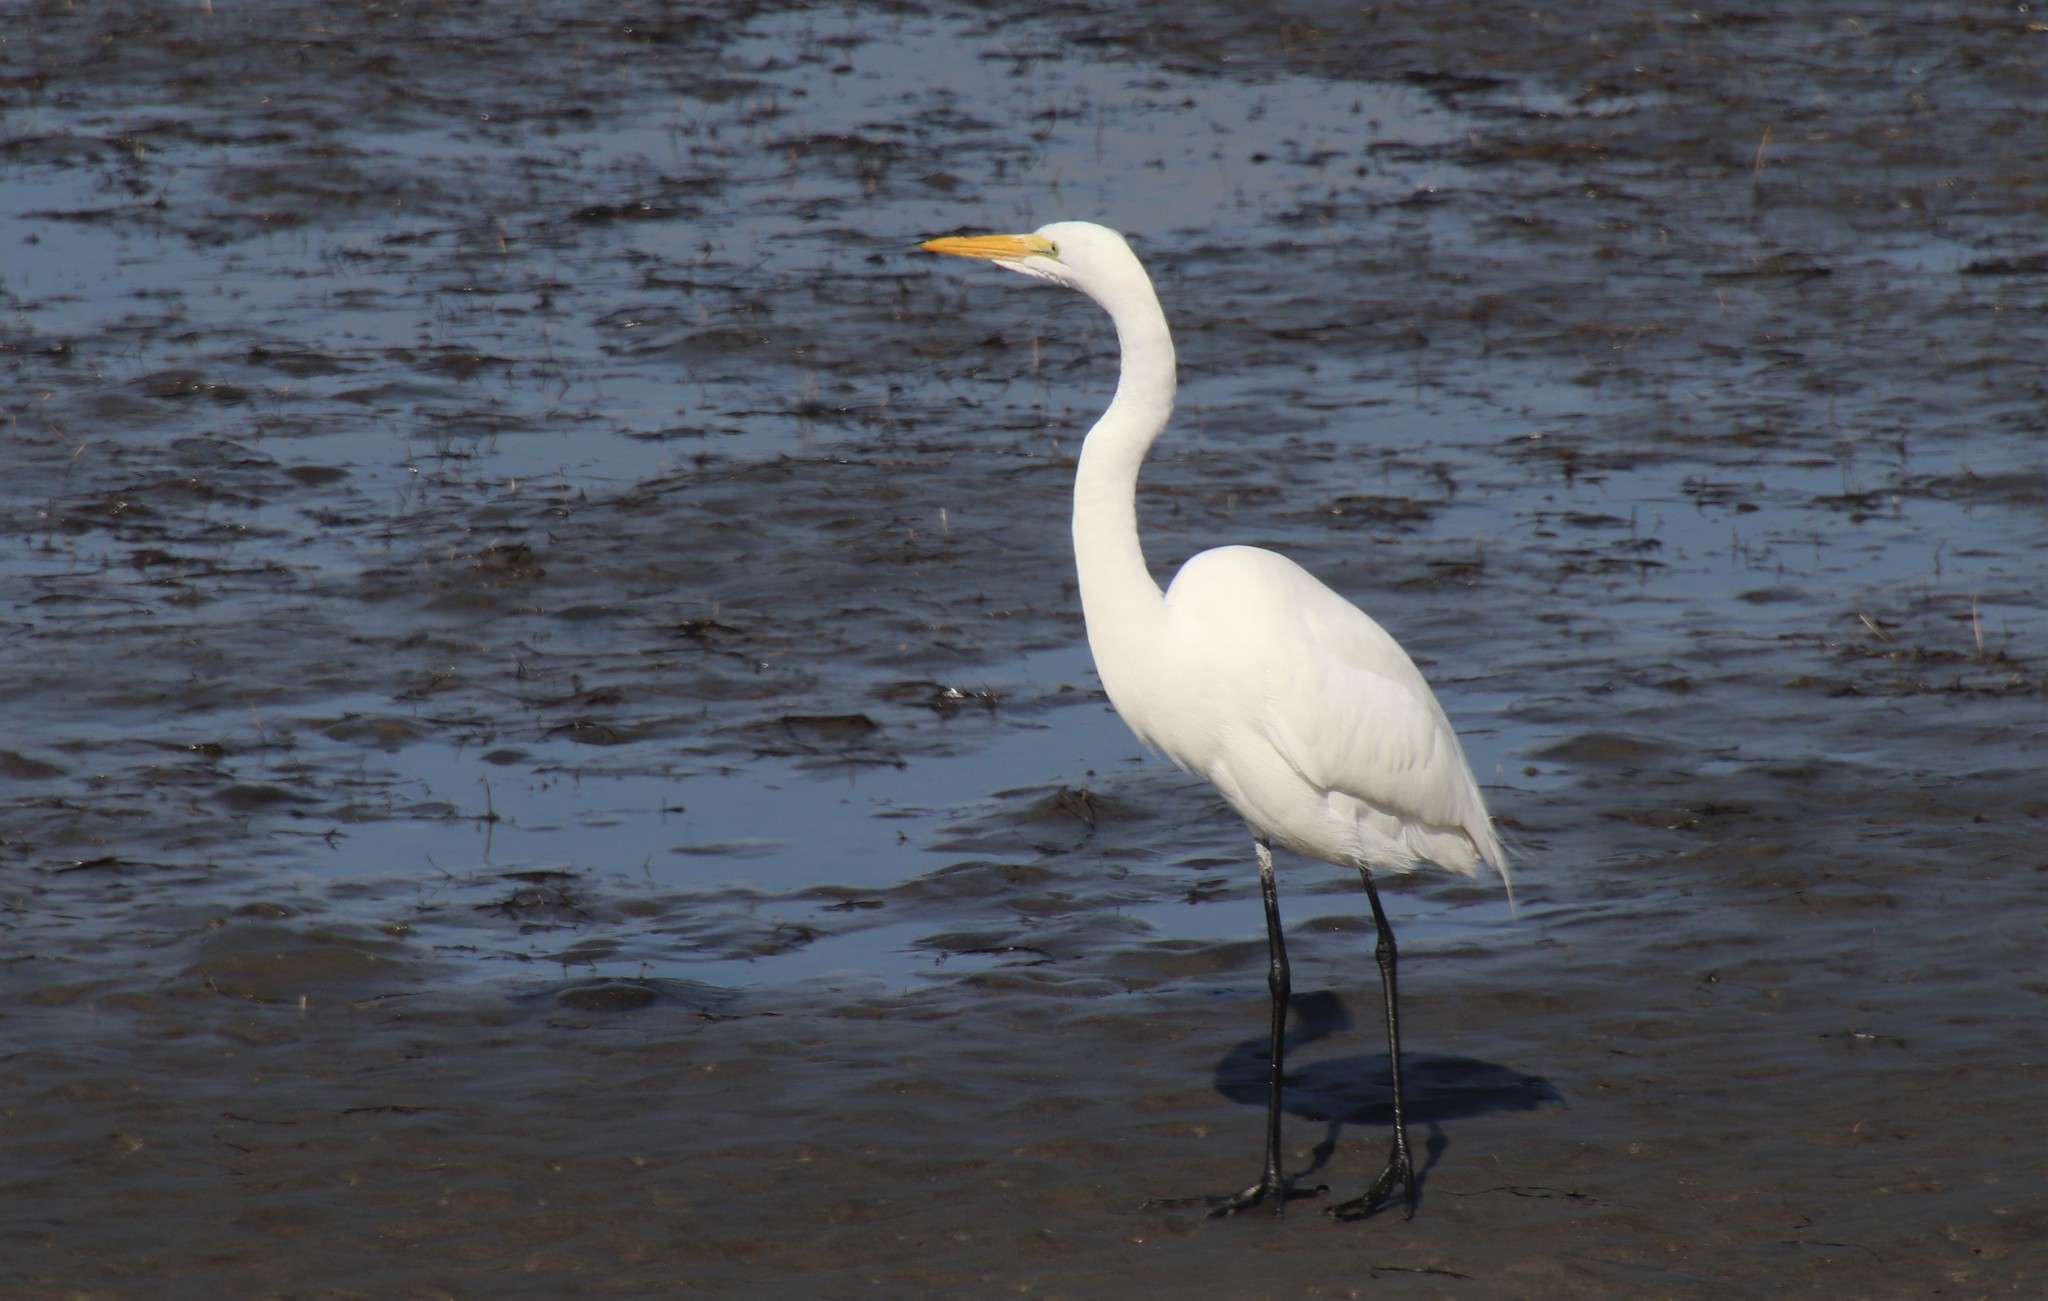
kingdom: Animalia
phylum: Chordata
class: Aves
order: Pelecaniformes
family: Ardeidae
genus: Ardea
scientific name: Ardea alba
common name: Great egret
